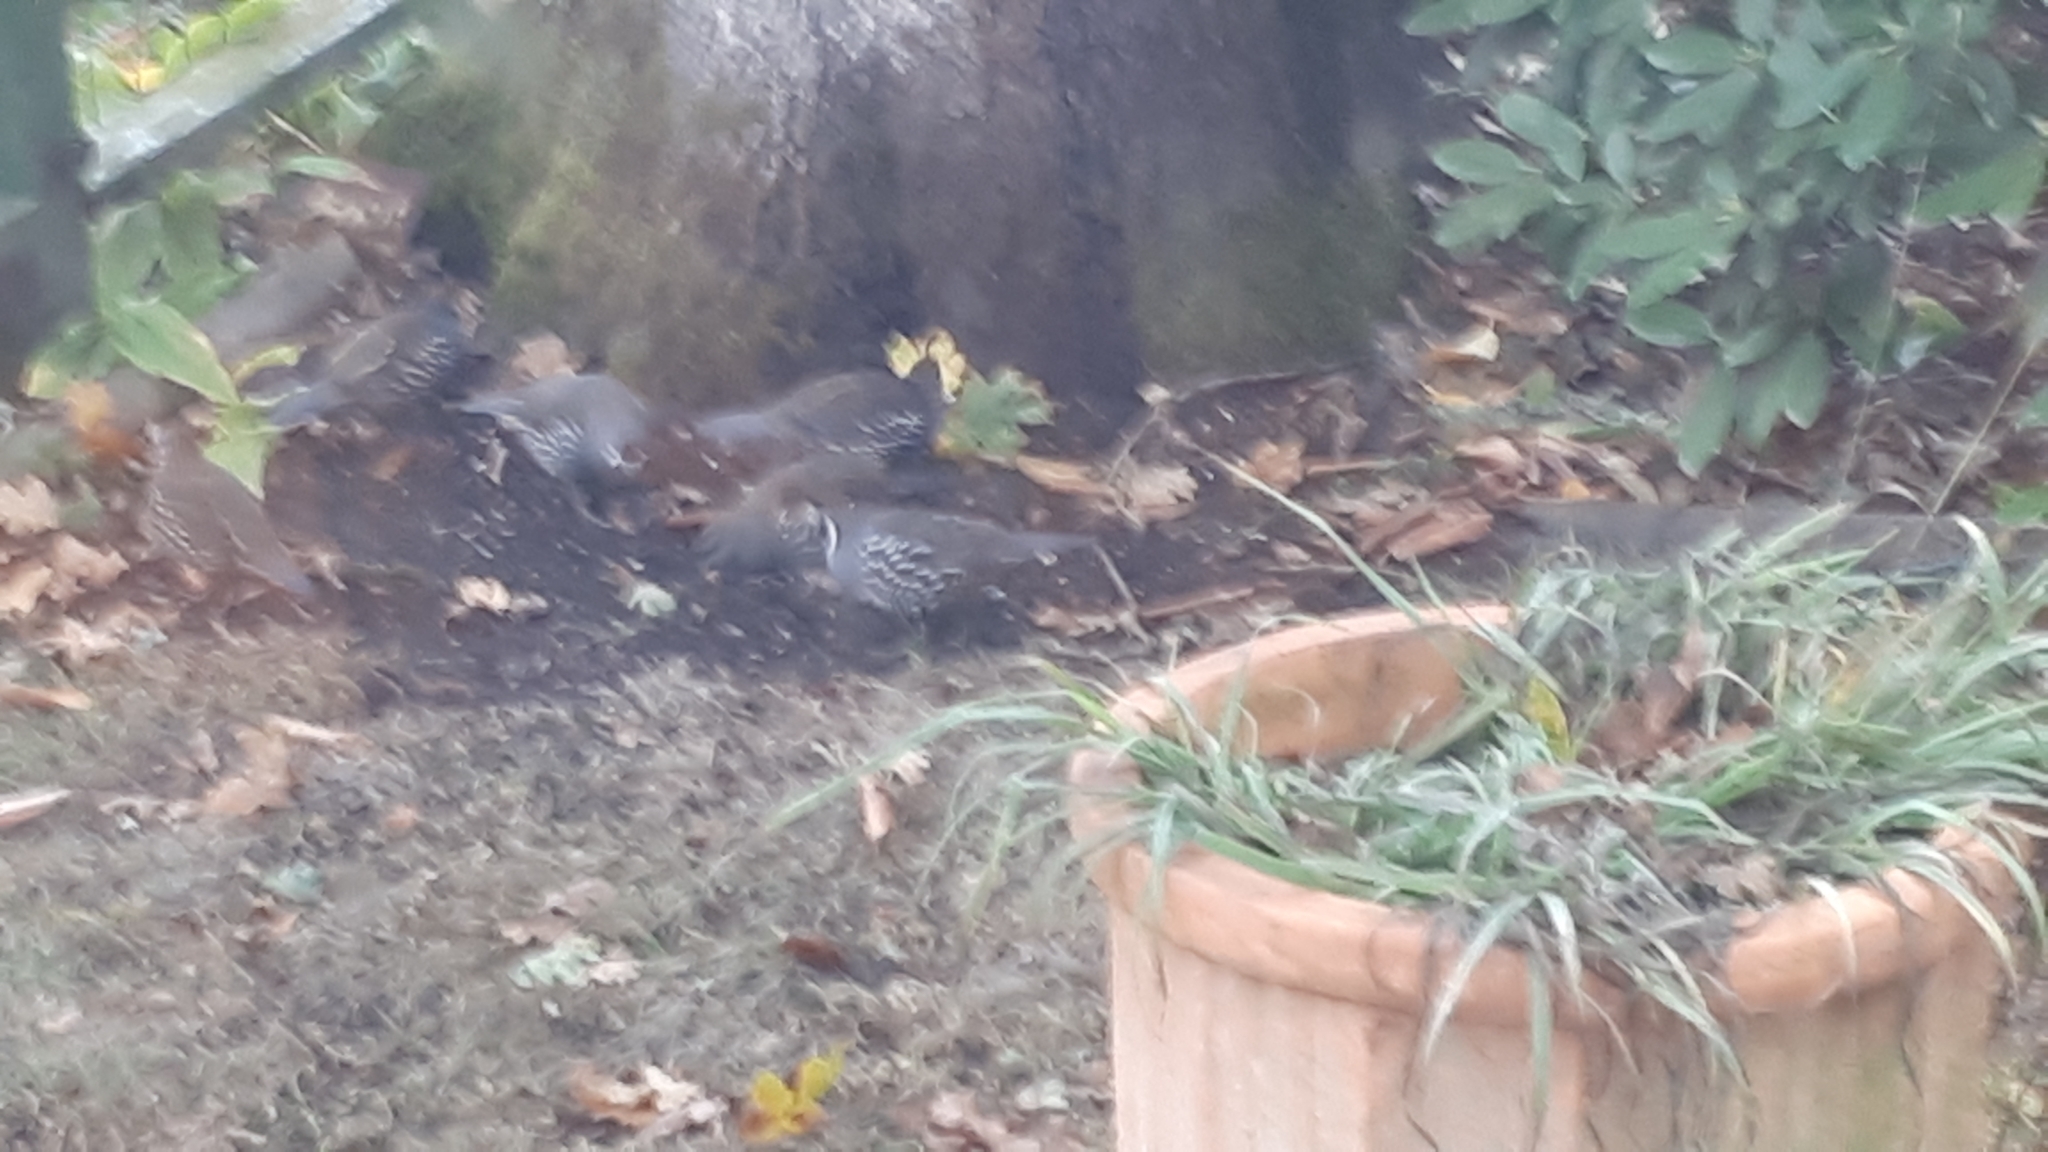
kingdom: Animalia
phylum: Chordata
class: Aves
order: Galliformes
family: Odontophoridae
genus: Callipepla
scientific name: Callipepla californica
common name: California quail
